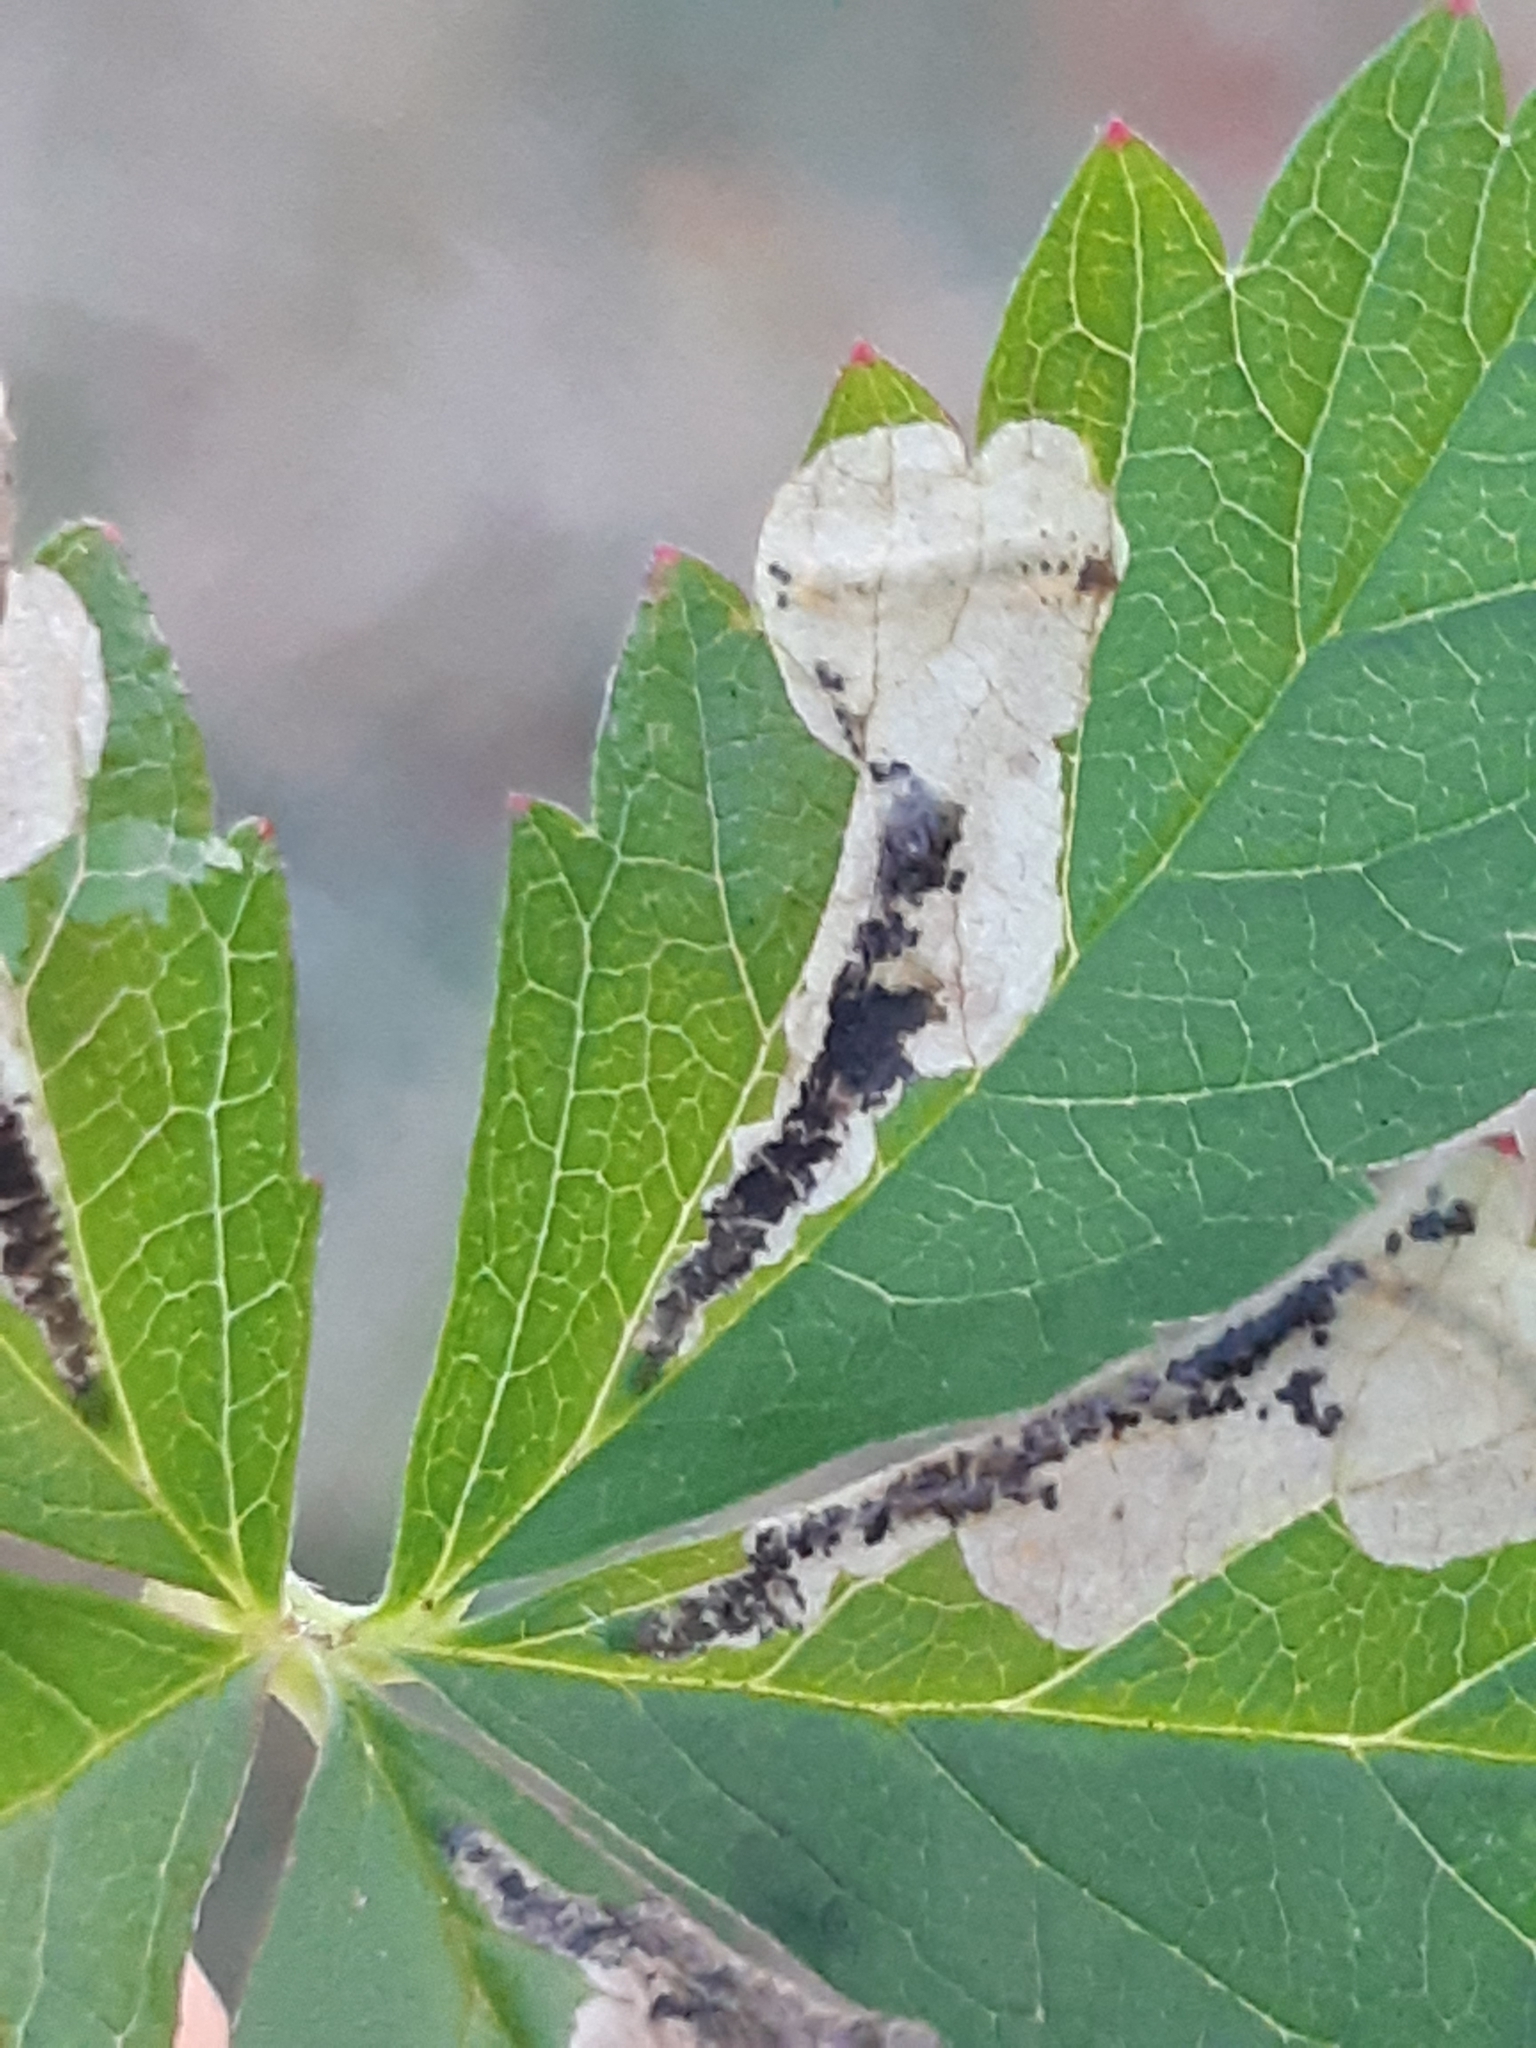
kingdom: Animalia
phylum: Arthropoda
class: Insecta
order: Hymenoptera
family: Tenthredinidae
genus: Fenella
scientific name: Fenella nigrita
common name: Tenthredid wasp
